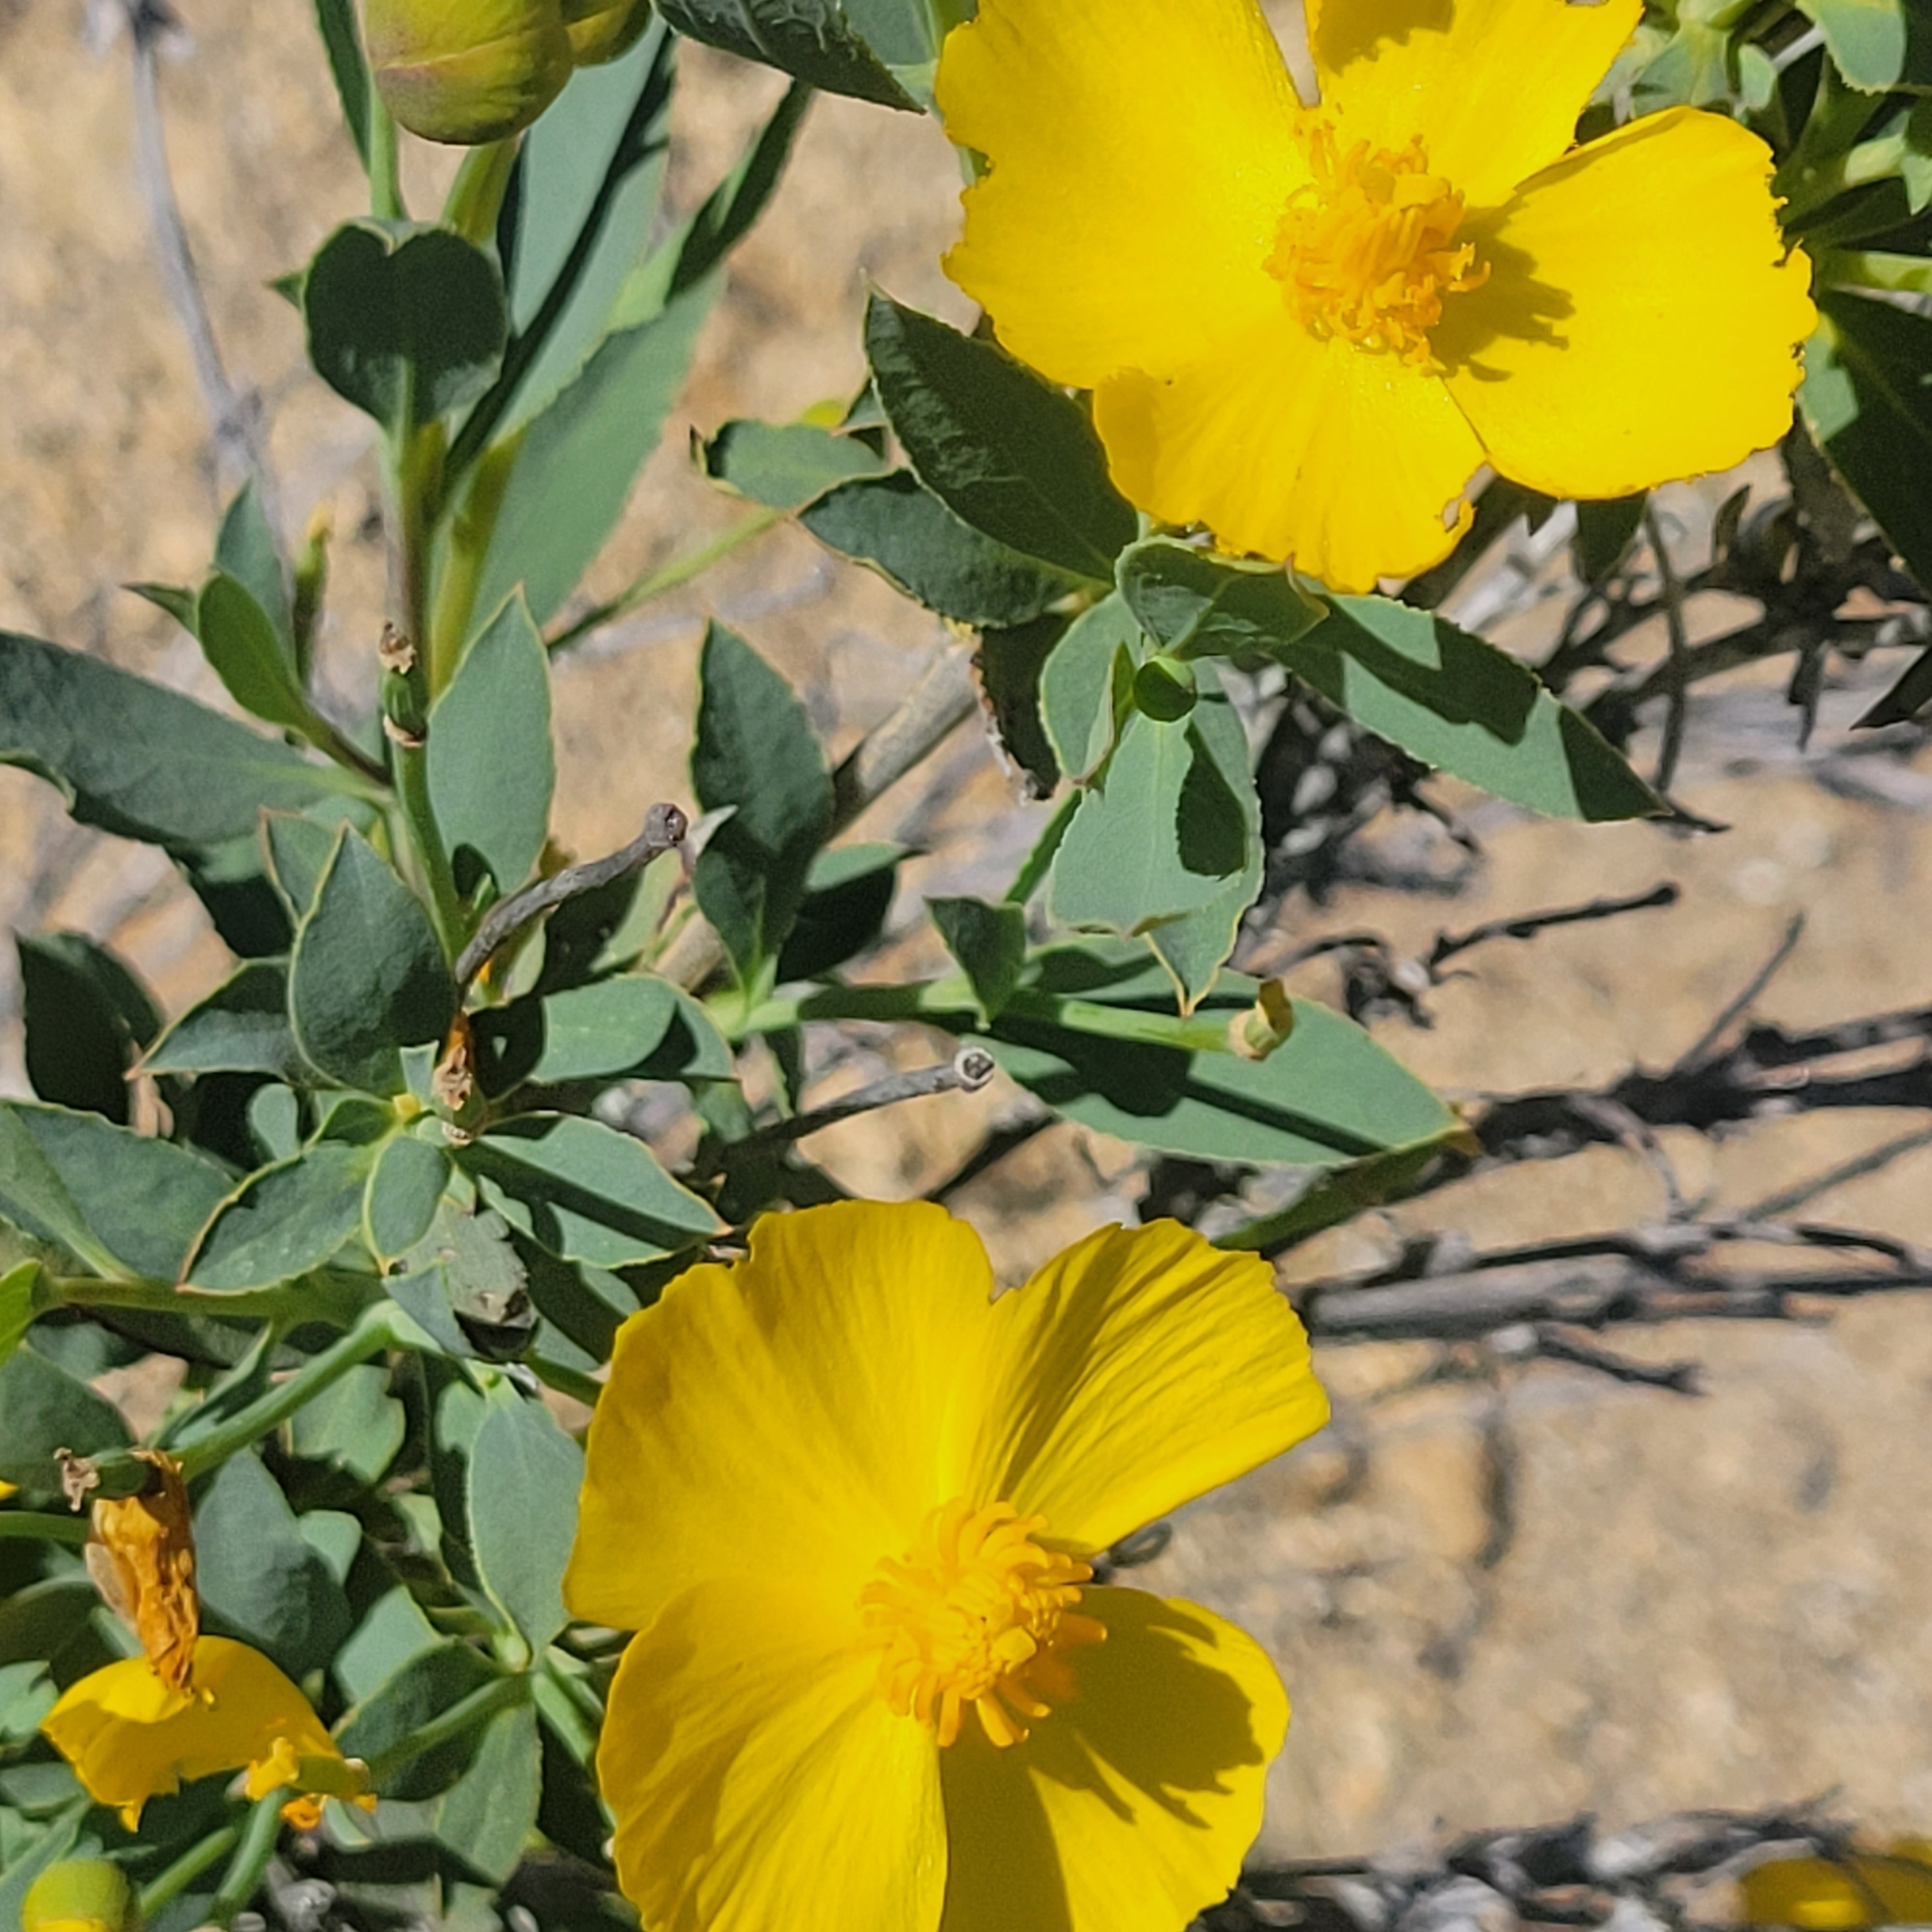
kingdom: Plantae
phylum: Tracheophyta
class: Magnoliopsida
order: Ranunculales
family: Papaveraceae
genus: Dendromecon
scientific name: Dendromecon rigida
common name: Tree poppy
